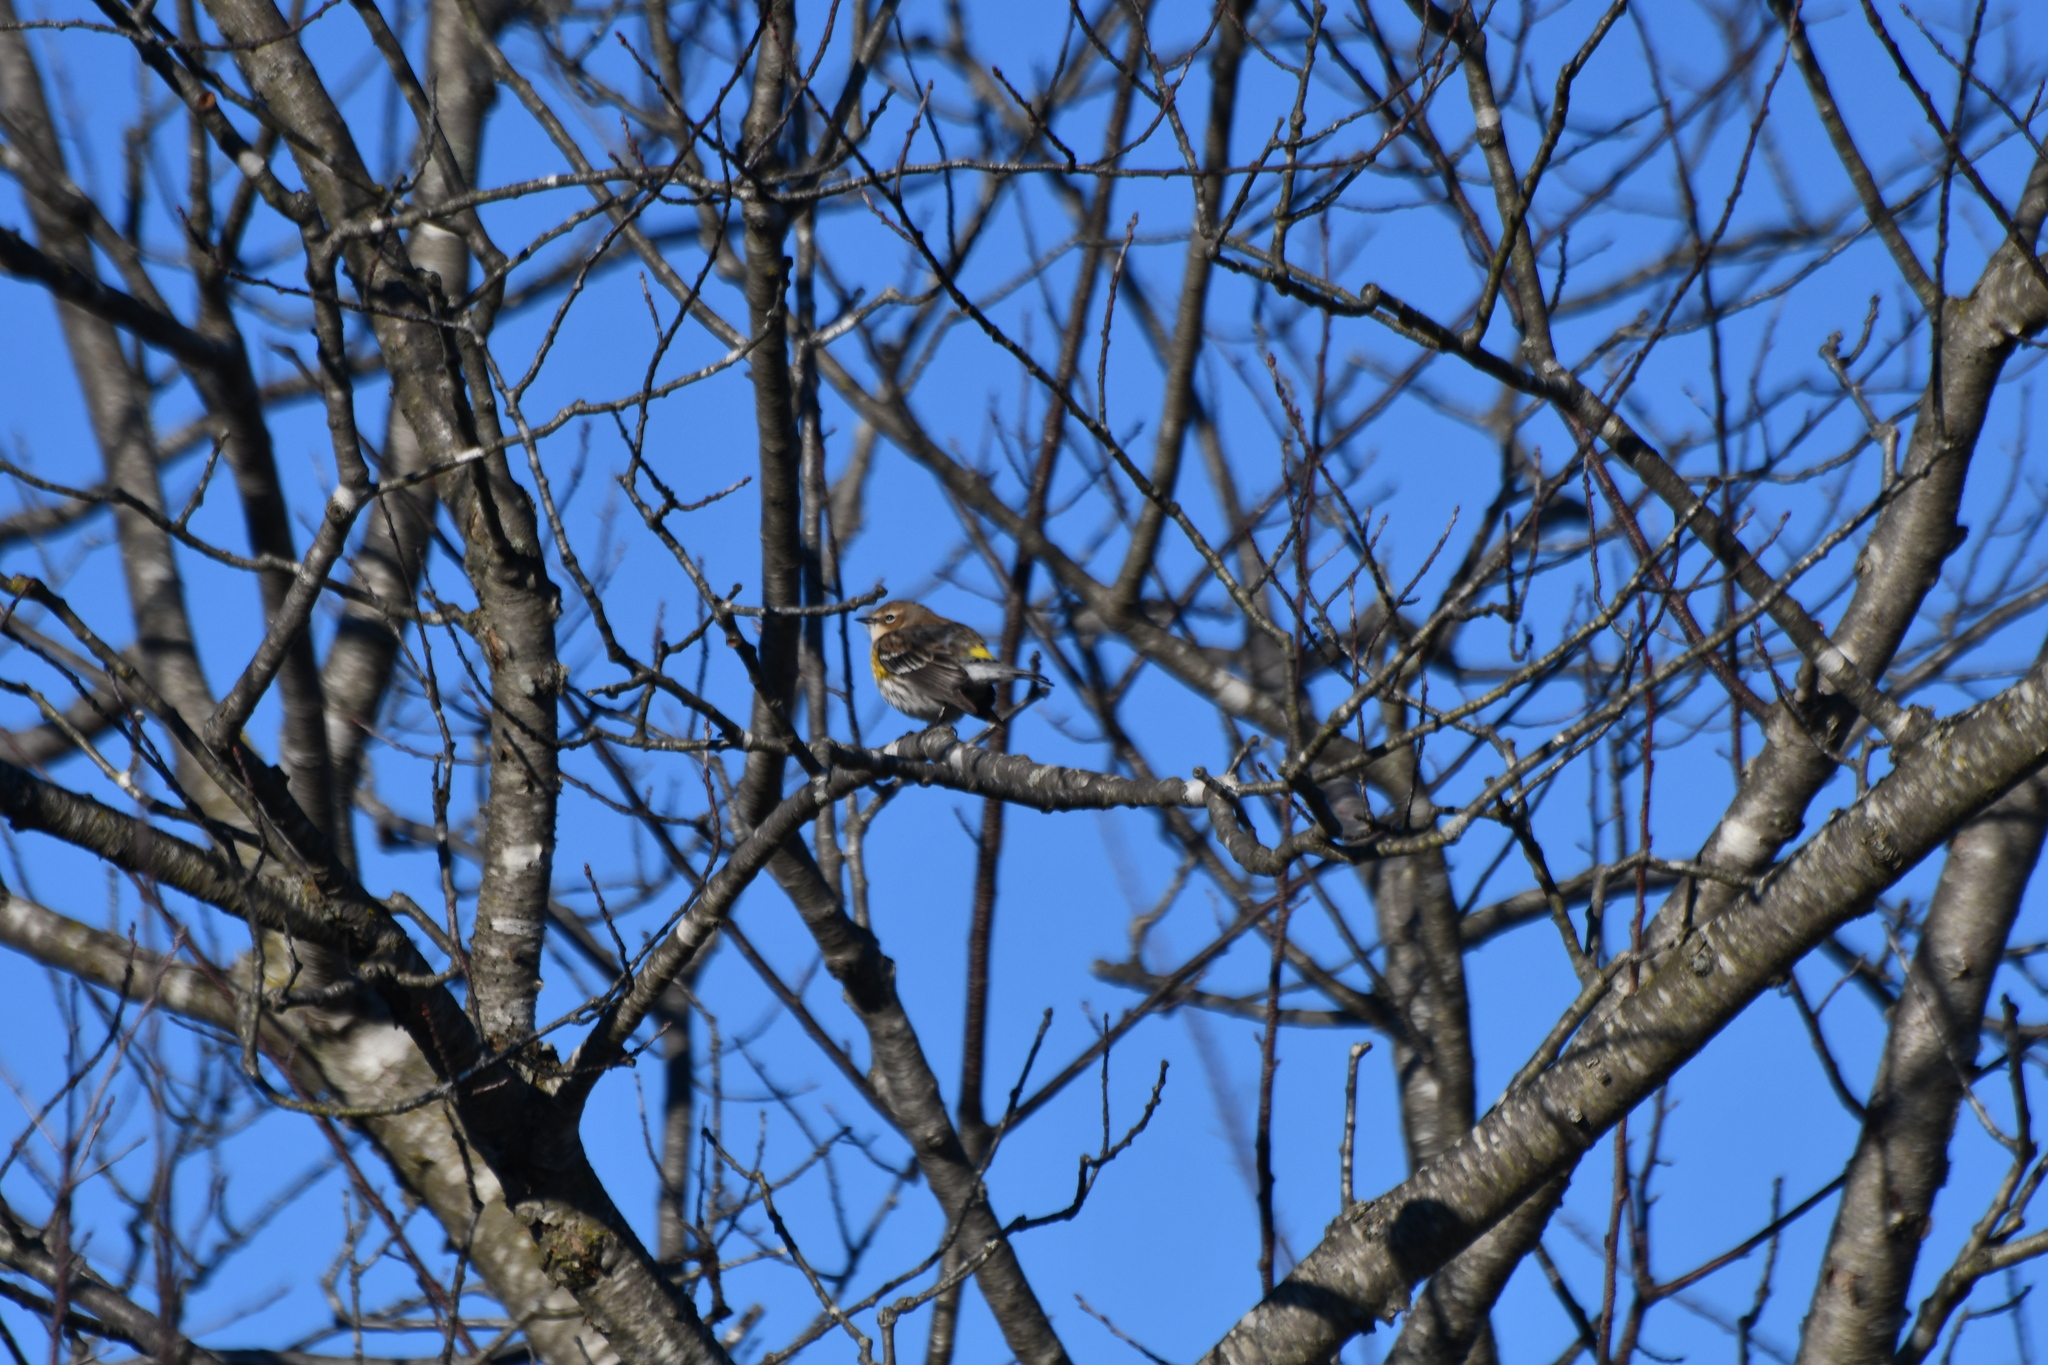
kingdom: Animalia
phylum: Chordata
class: Aves
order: Passeriformes
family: Parulidae
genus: Setophaga
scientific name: Setophaga coronata
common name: Myrtle warbler
